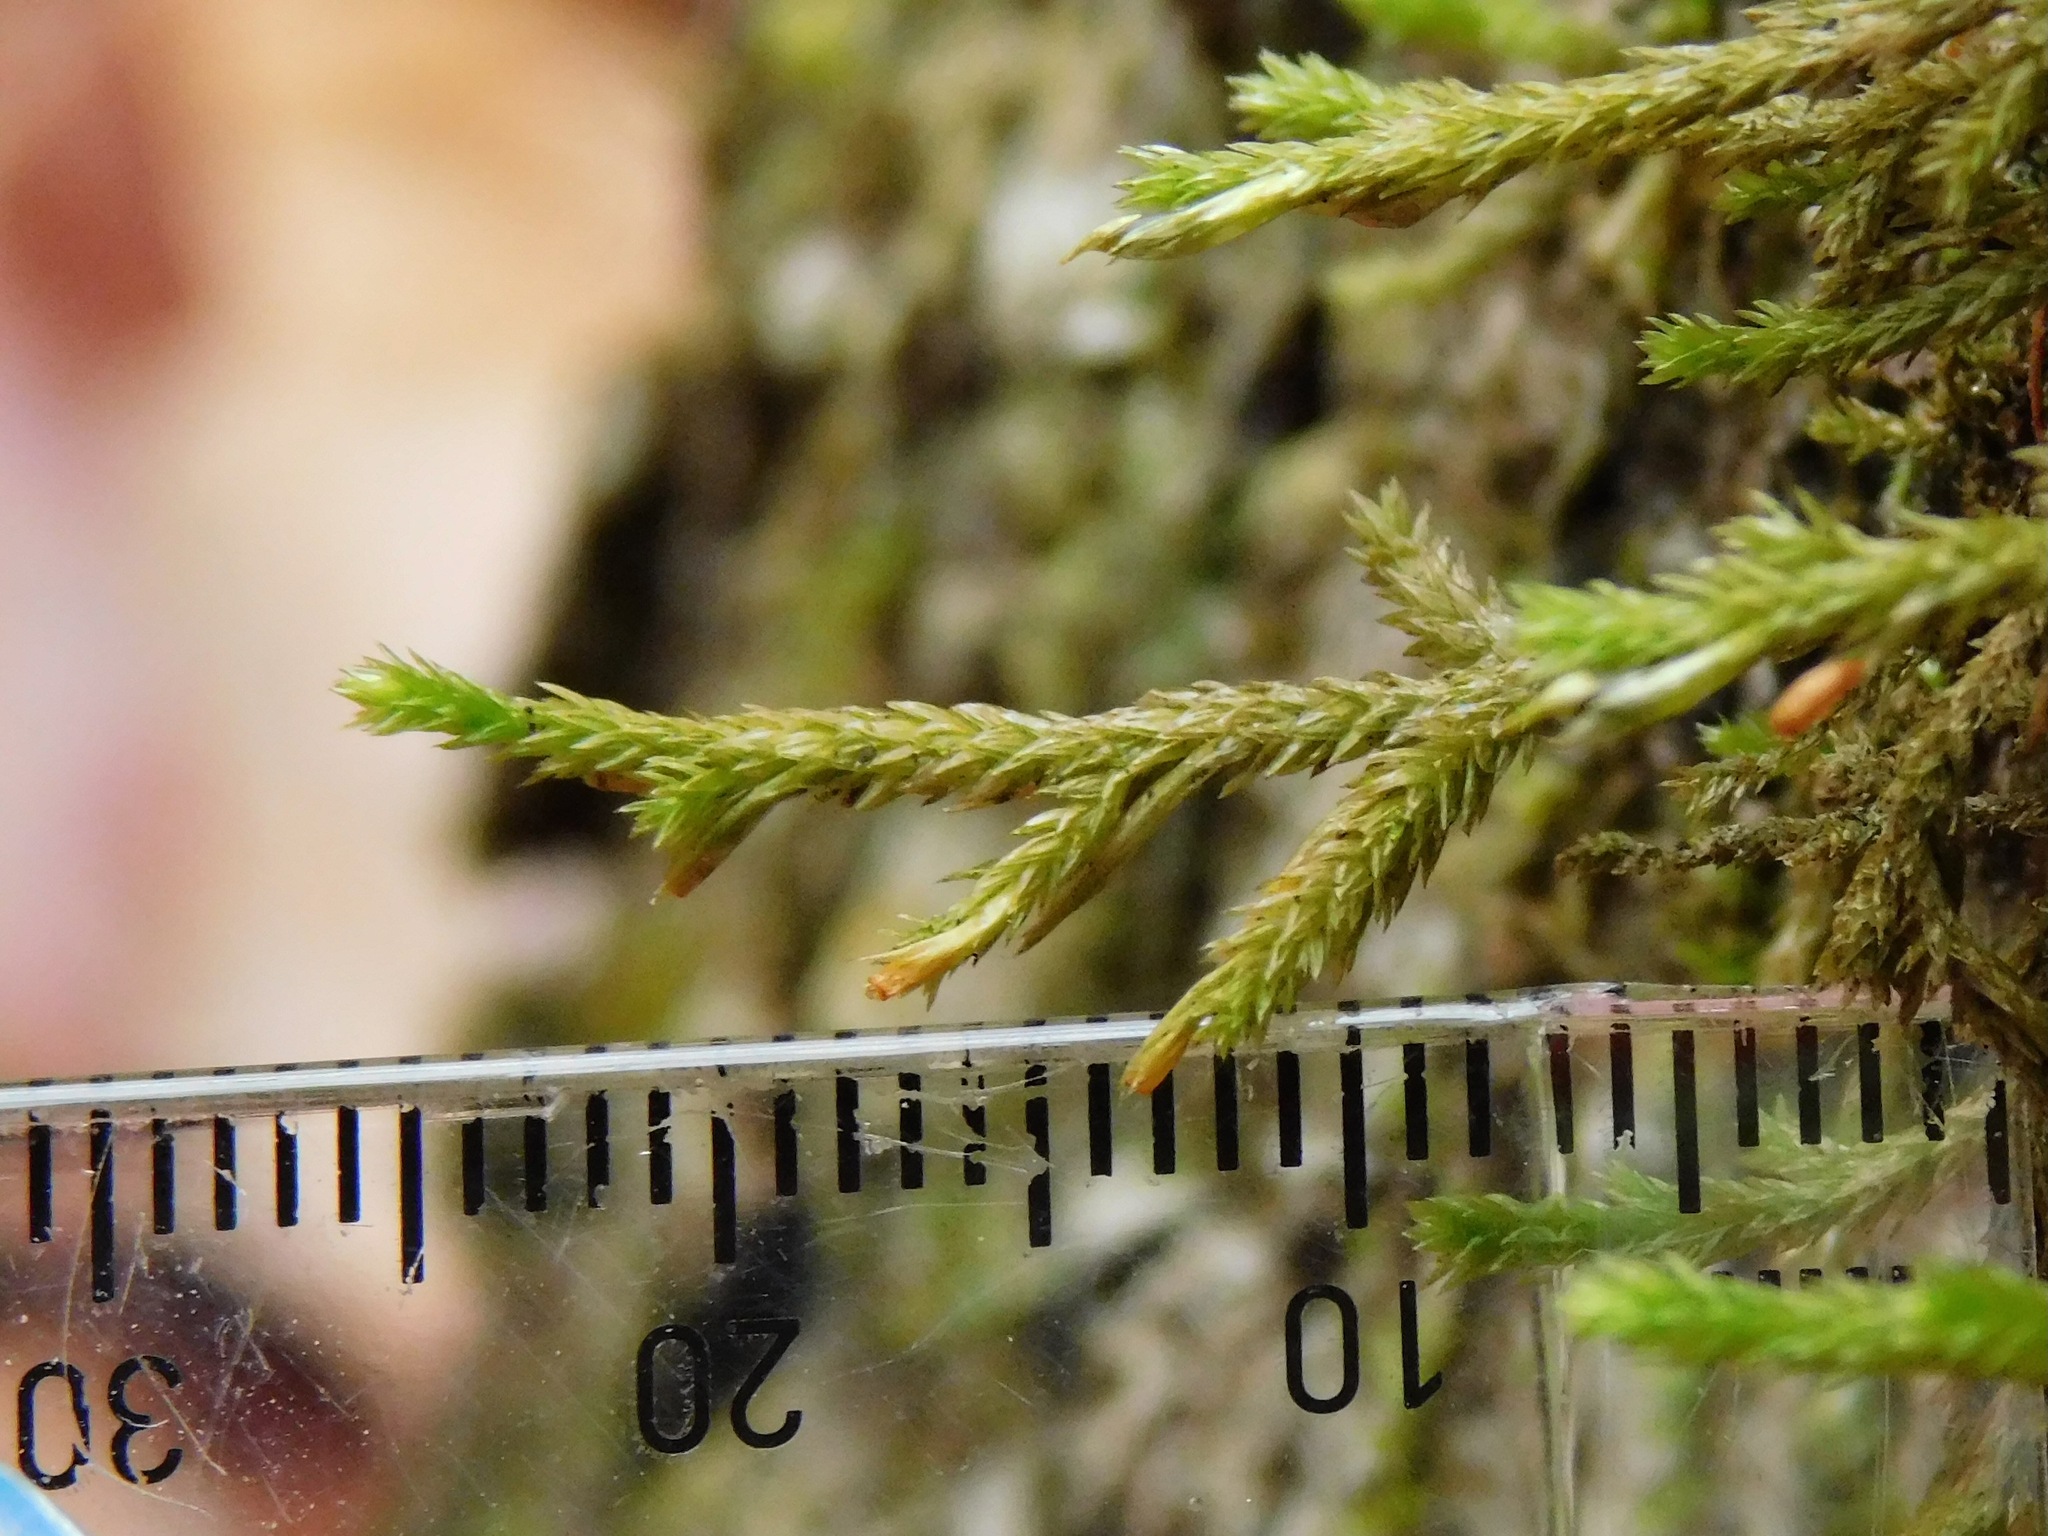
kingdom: Plantae
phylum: Bryophyta
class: Bryopsida
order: Hypnales
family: Neckeraceae
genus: Forsstroemia
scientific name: Forsstroemia trichomitria
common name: Fan moss
